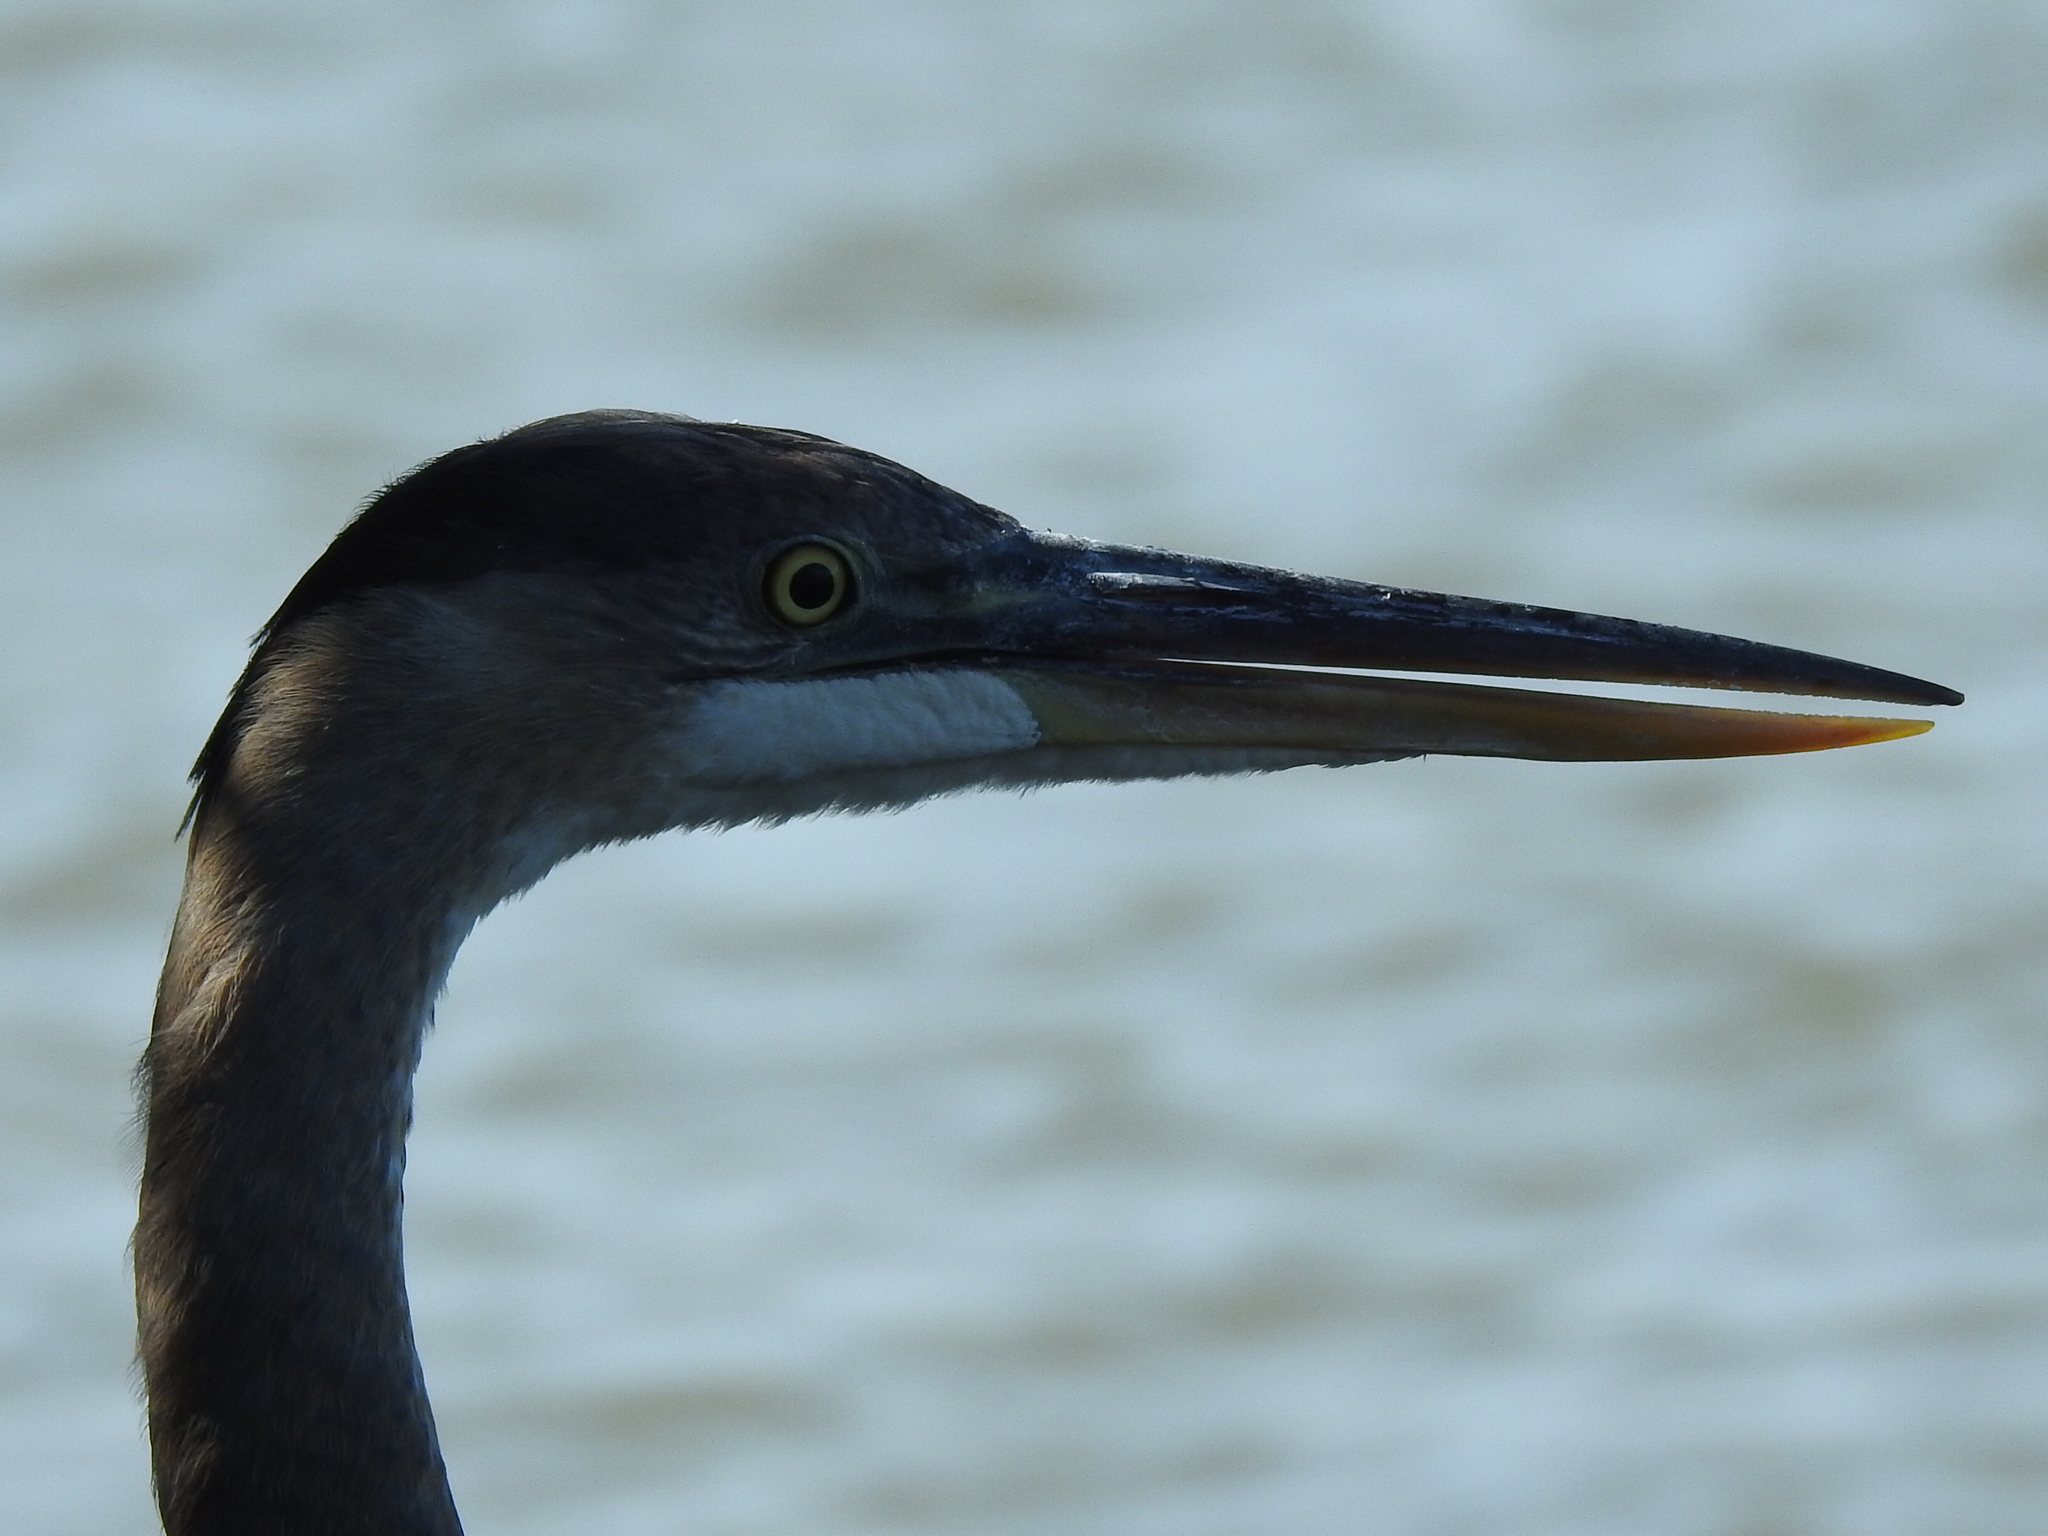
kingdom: Animalia
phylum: Chordata
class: Aves
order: Pelecaniformes
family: Ardeidae
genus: Ardea
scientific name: Ardea herodias
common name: Great blue heron
